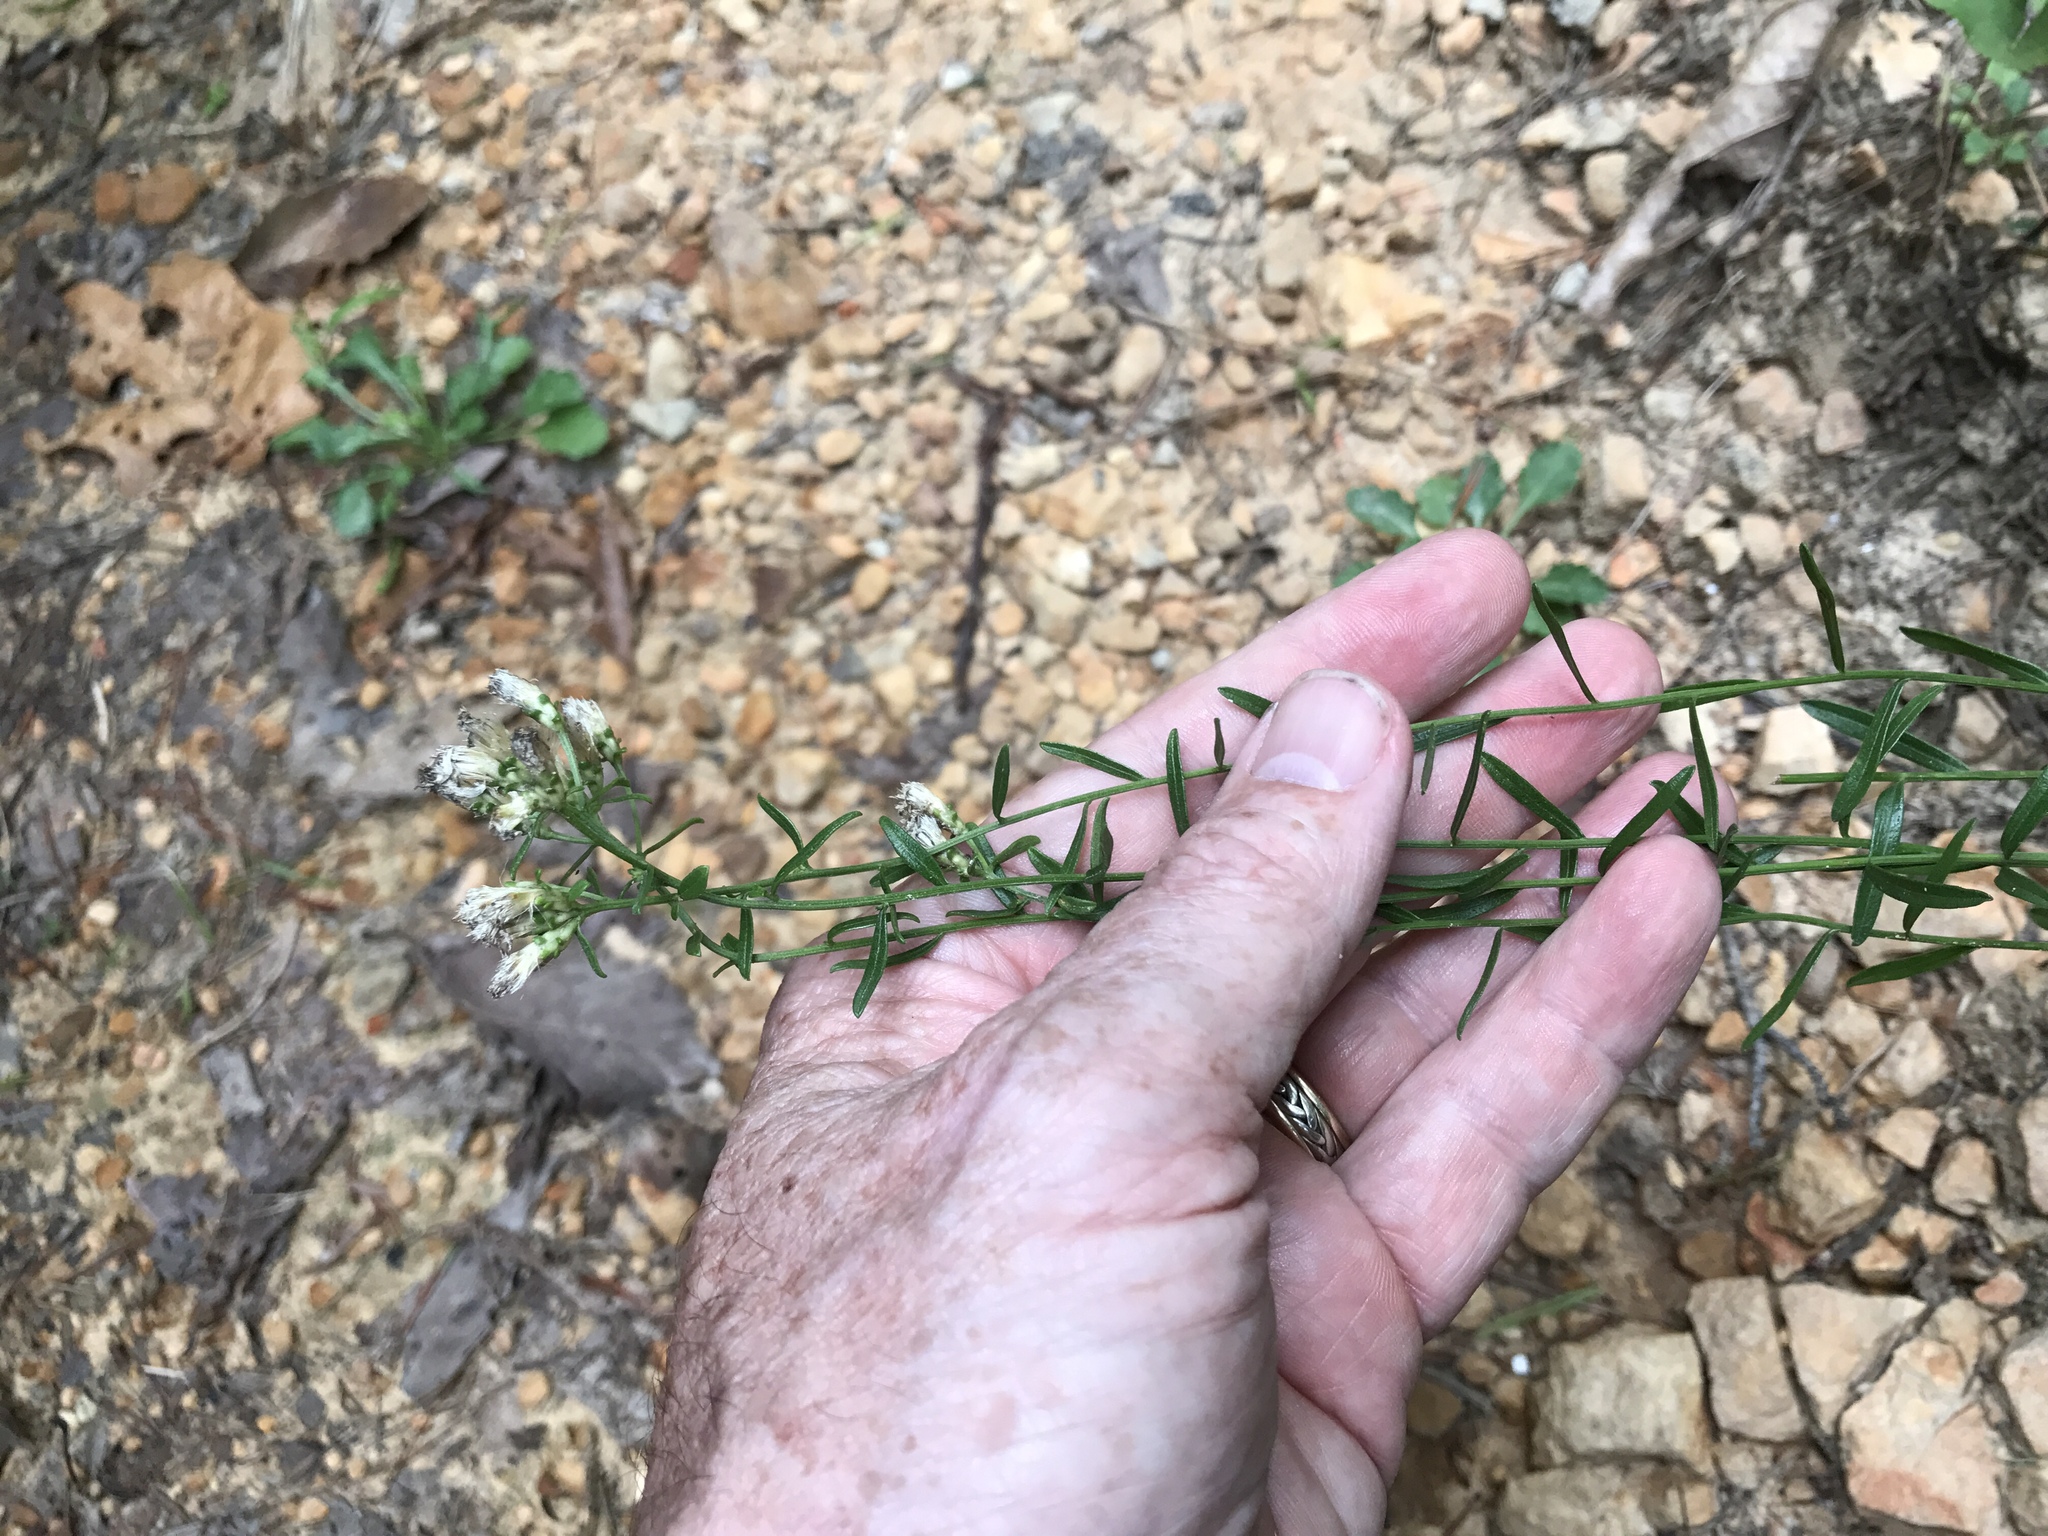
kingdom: Plantae
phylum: Tracheophyta
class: Magnoliopsida
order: Asterales
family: Asteraceae
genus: Sericocarpus
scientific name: Sericocarpus linifolius
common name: Narrow-leaf aster
